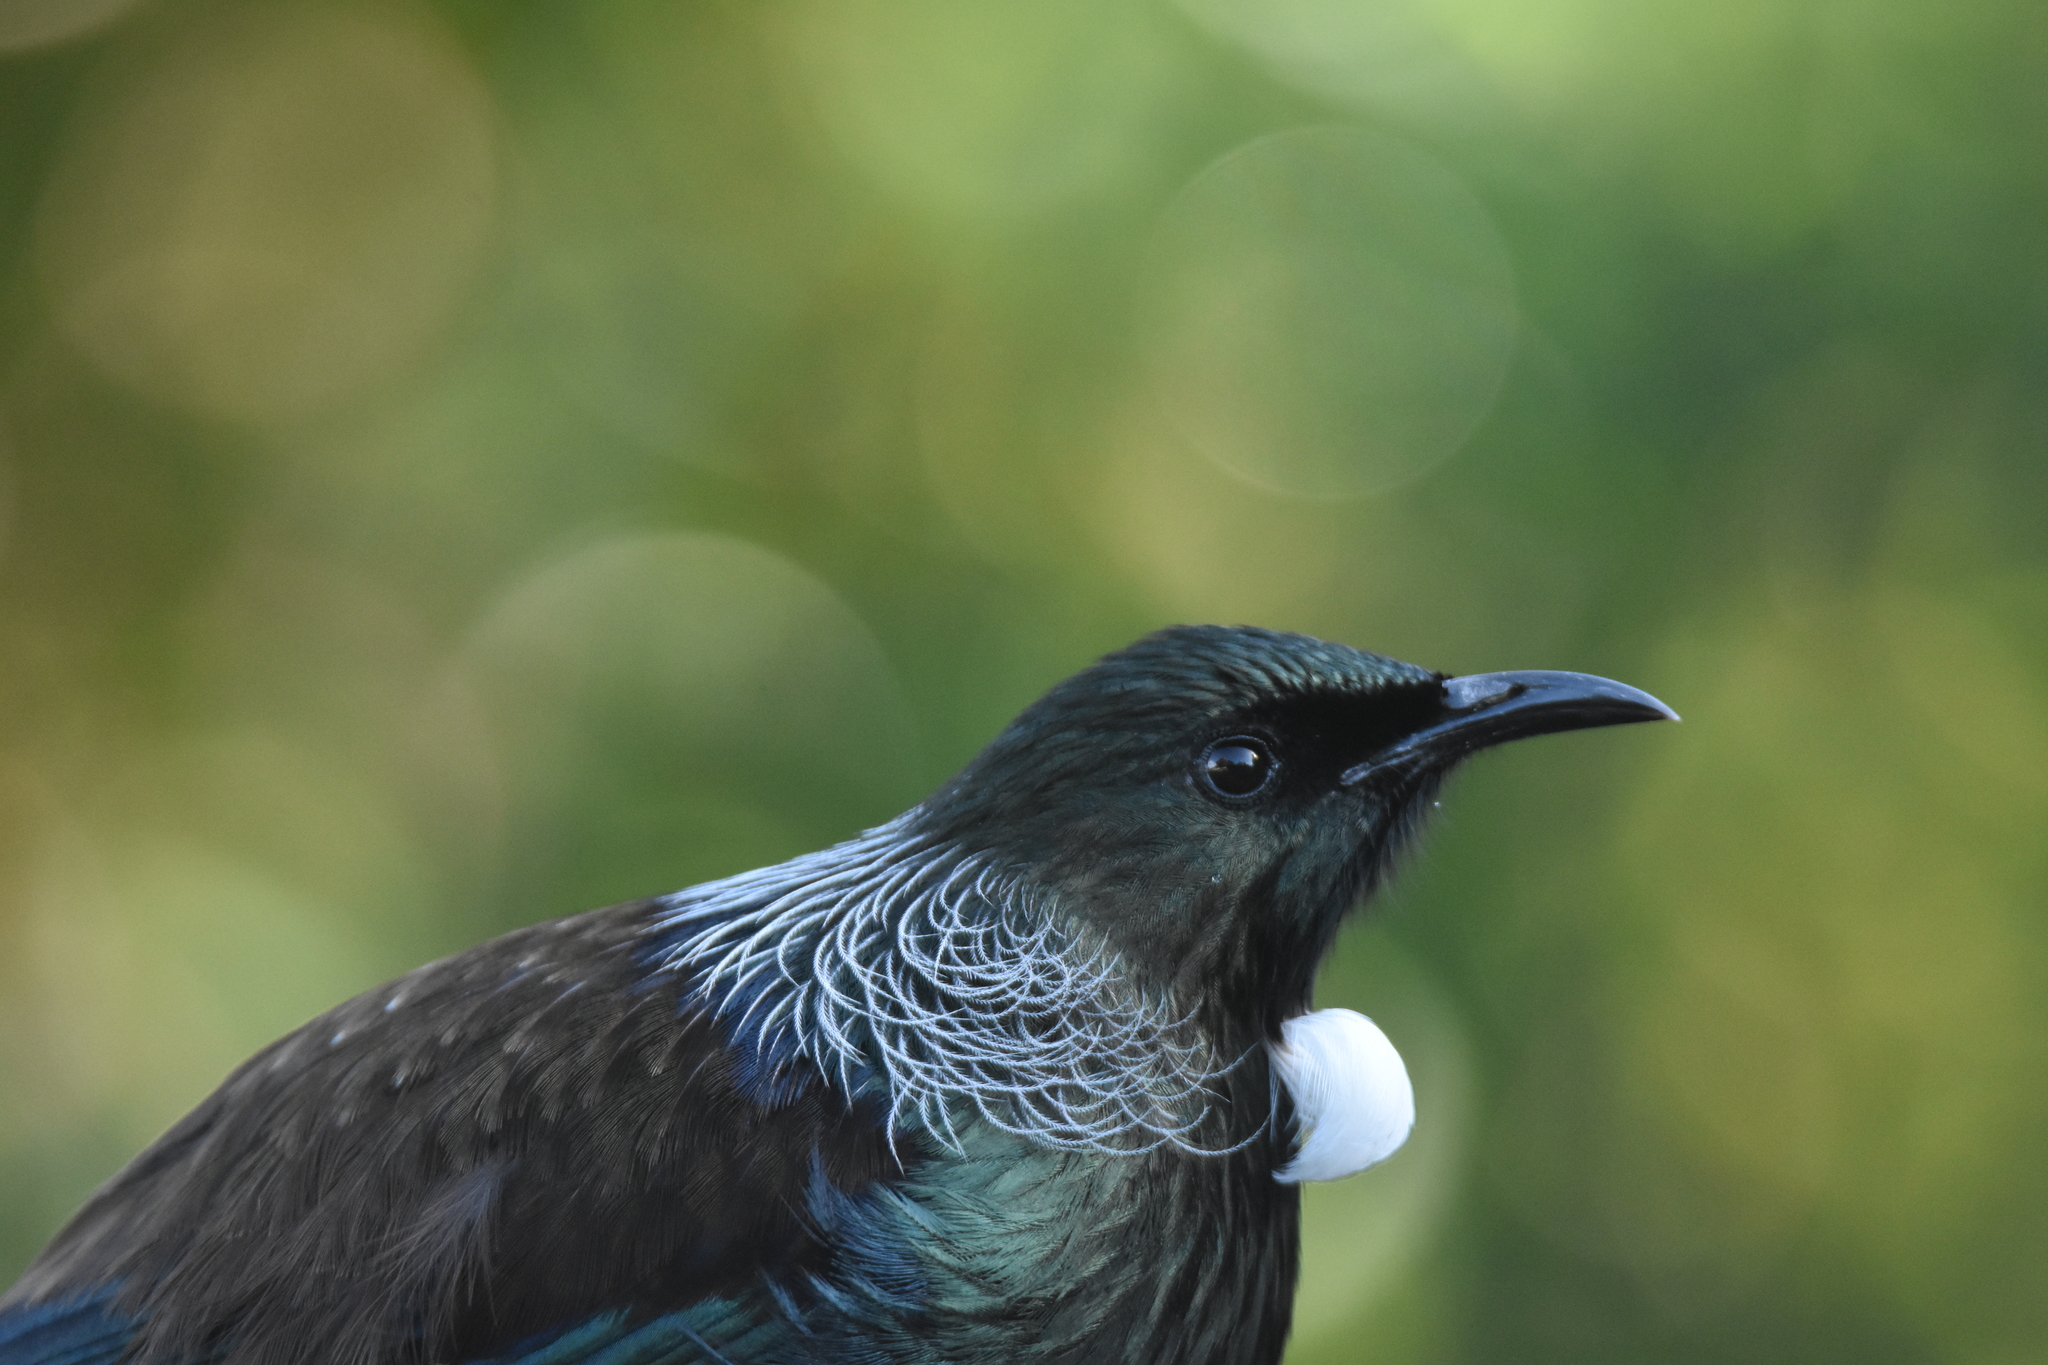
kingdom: Animalia
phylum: Chordata
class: Aves
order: Passeriformes
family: Meliphagidae
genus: Prosthemadera
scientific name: Prosthemadera novaeseelandiae
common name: Tui
